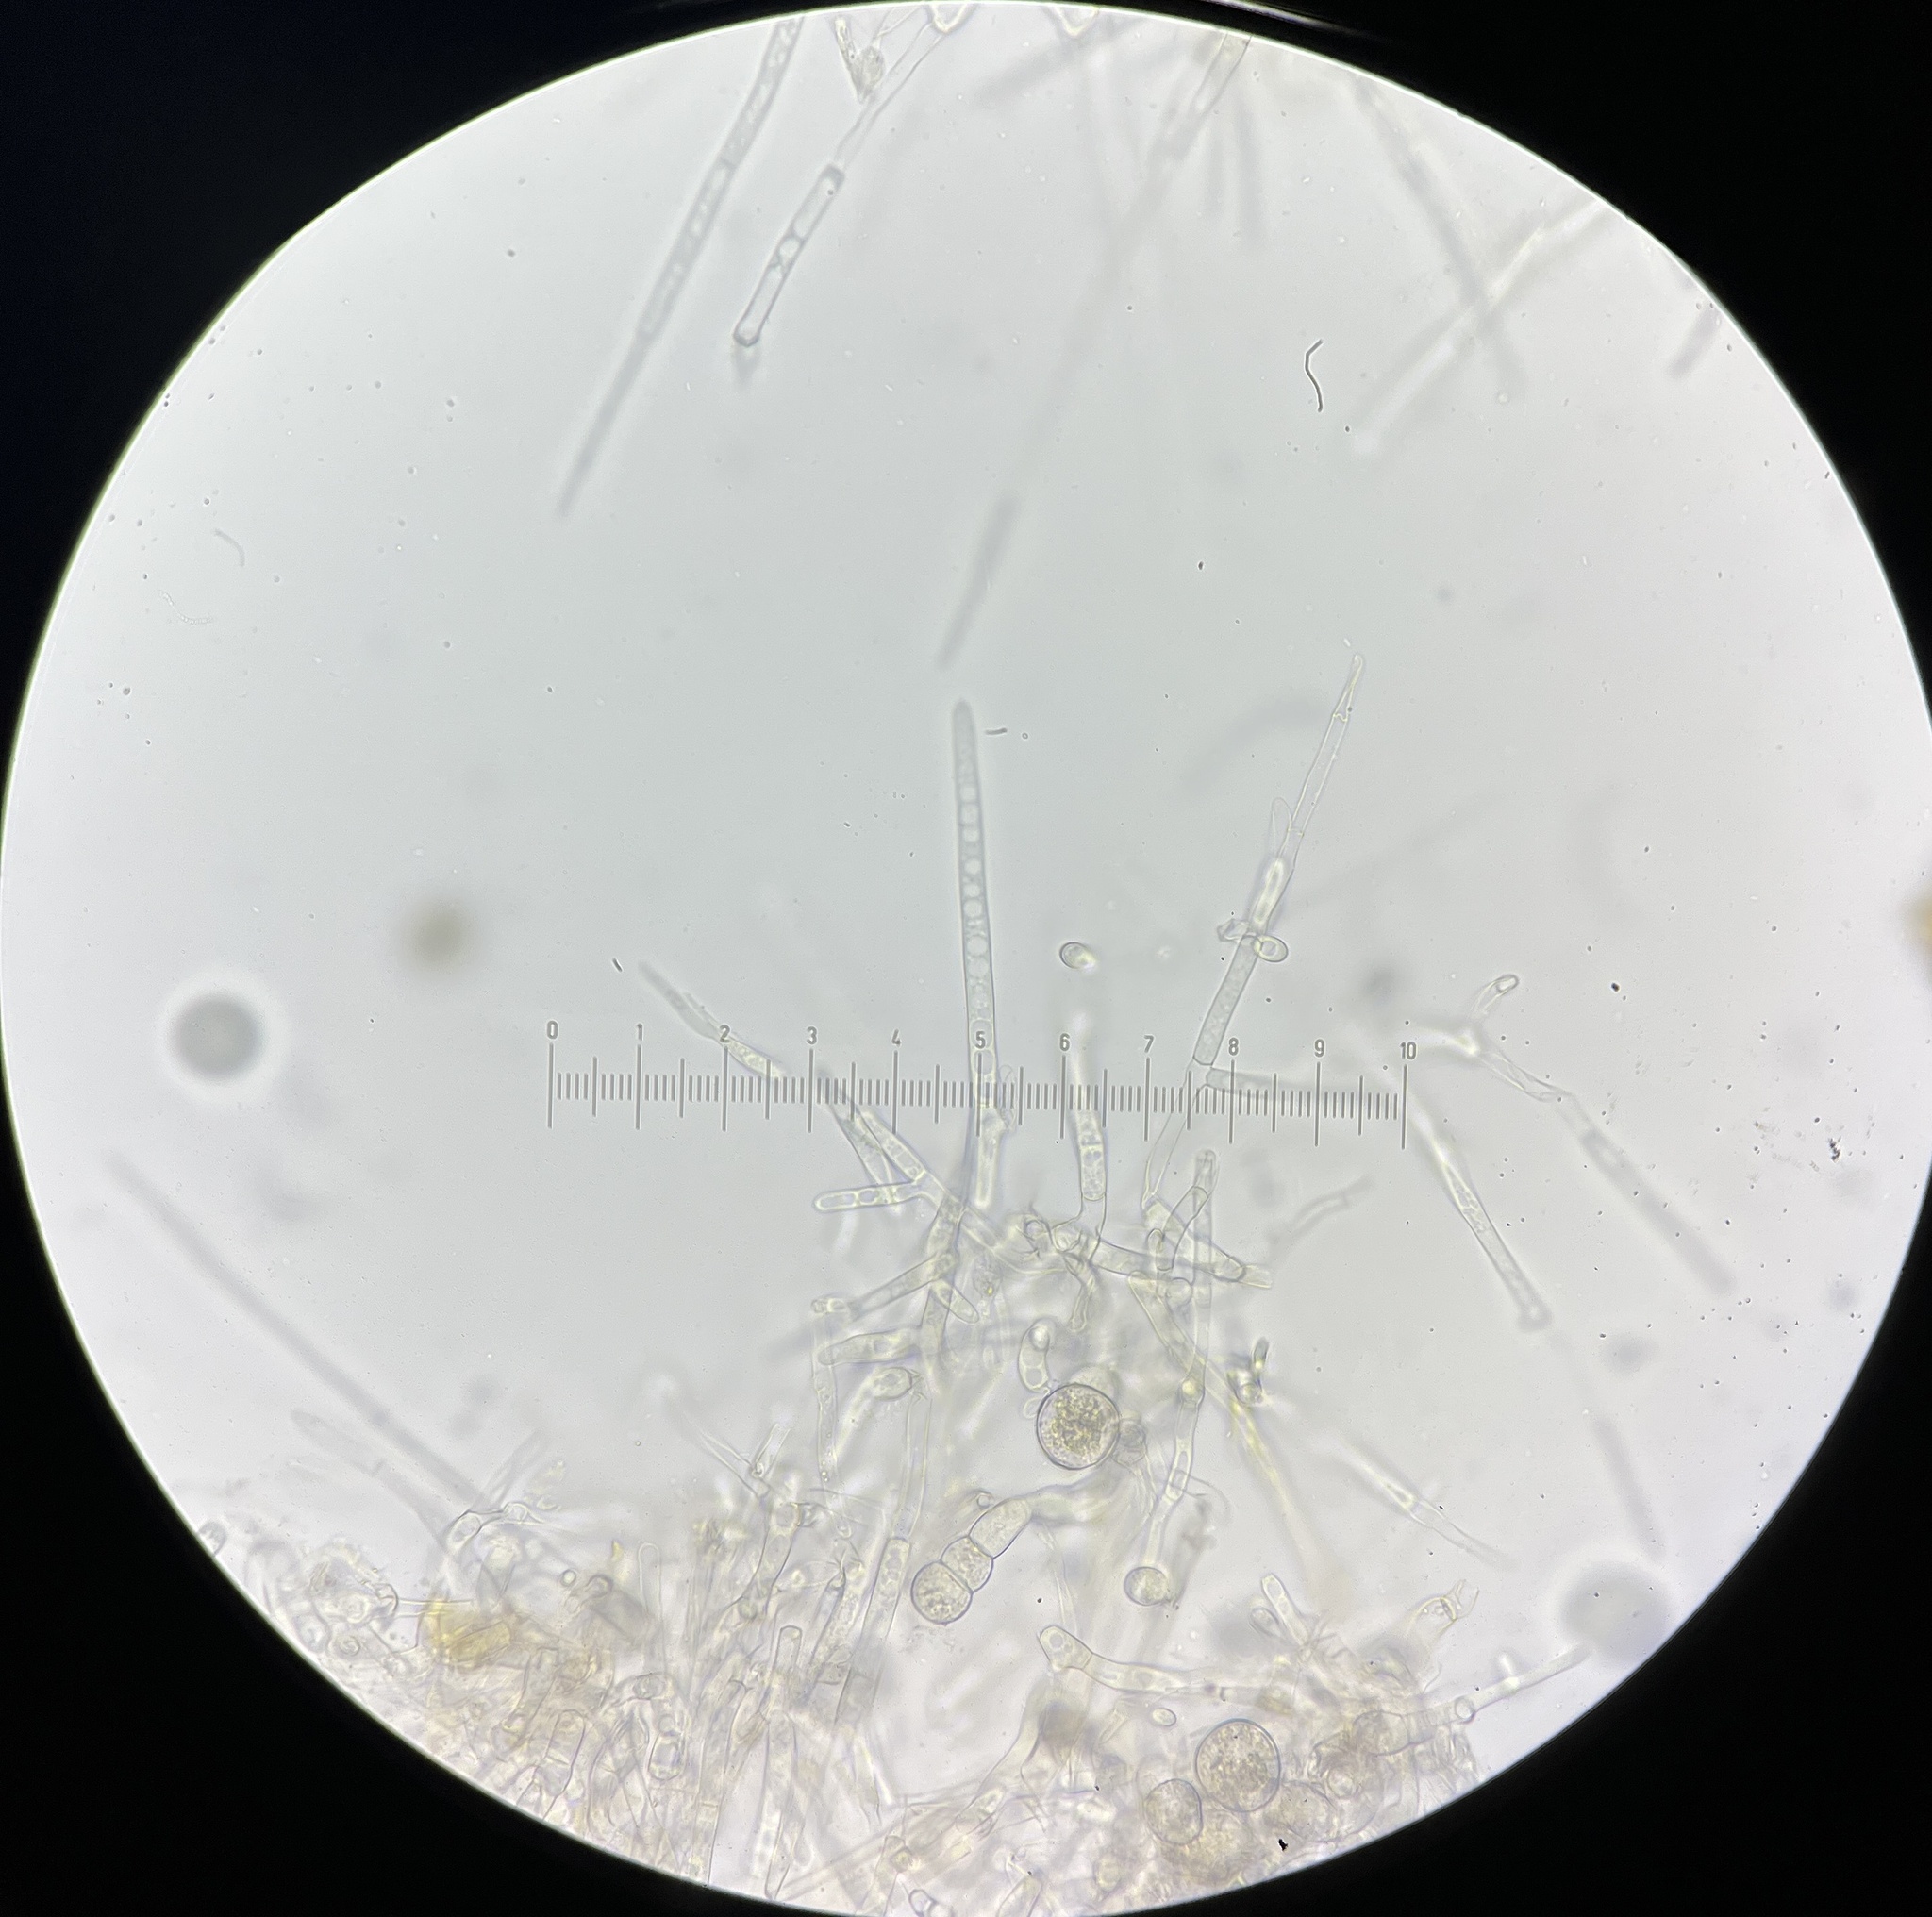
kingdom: Fungi
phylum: Ascomycota
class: Sordariomycetes
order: Hypocreales
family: Hypocreaceae
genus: Mycogone
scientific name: Mycogone rosea
